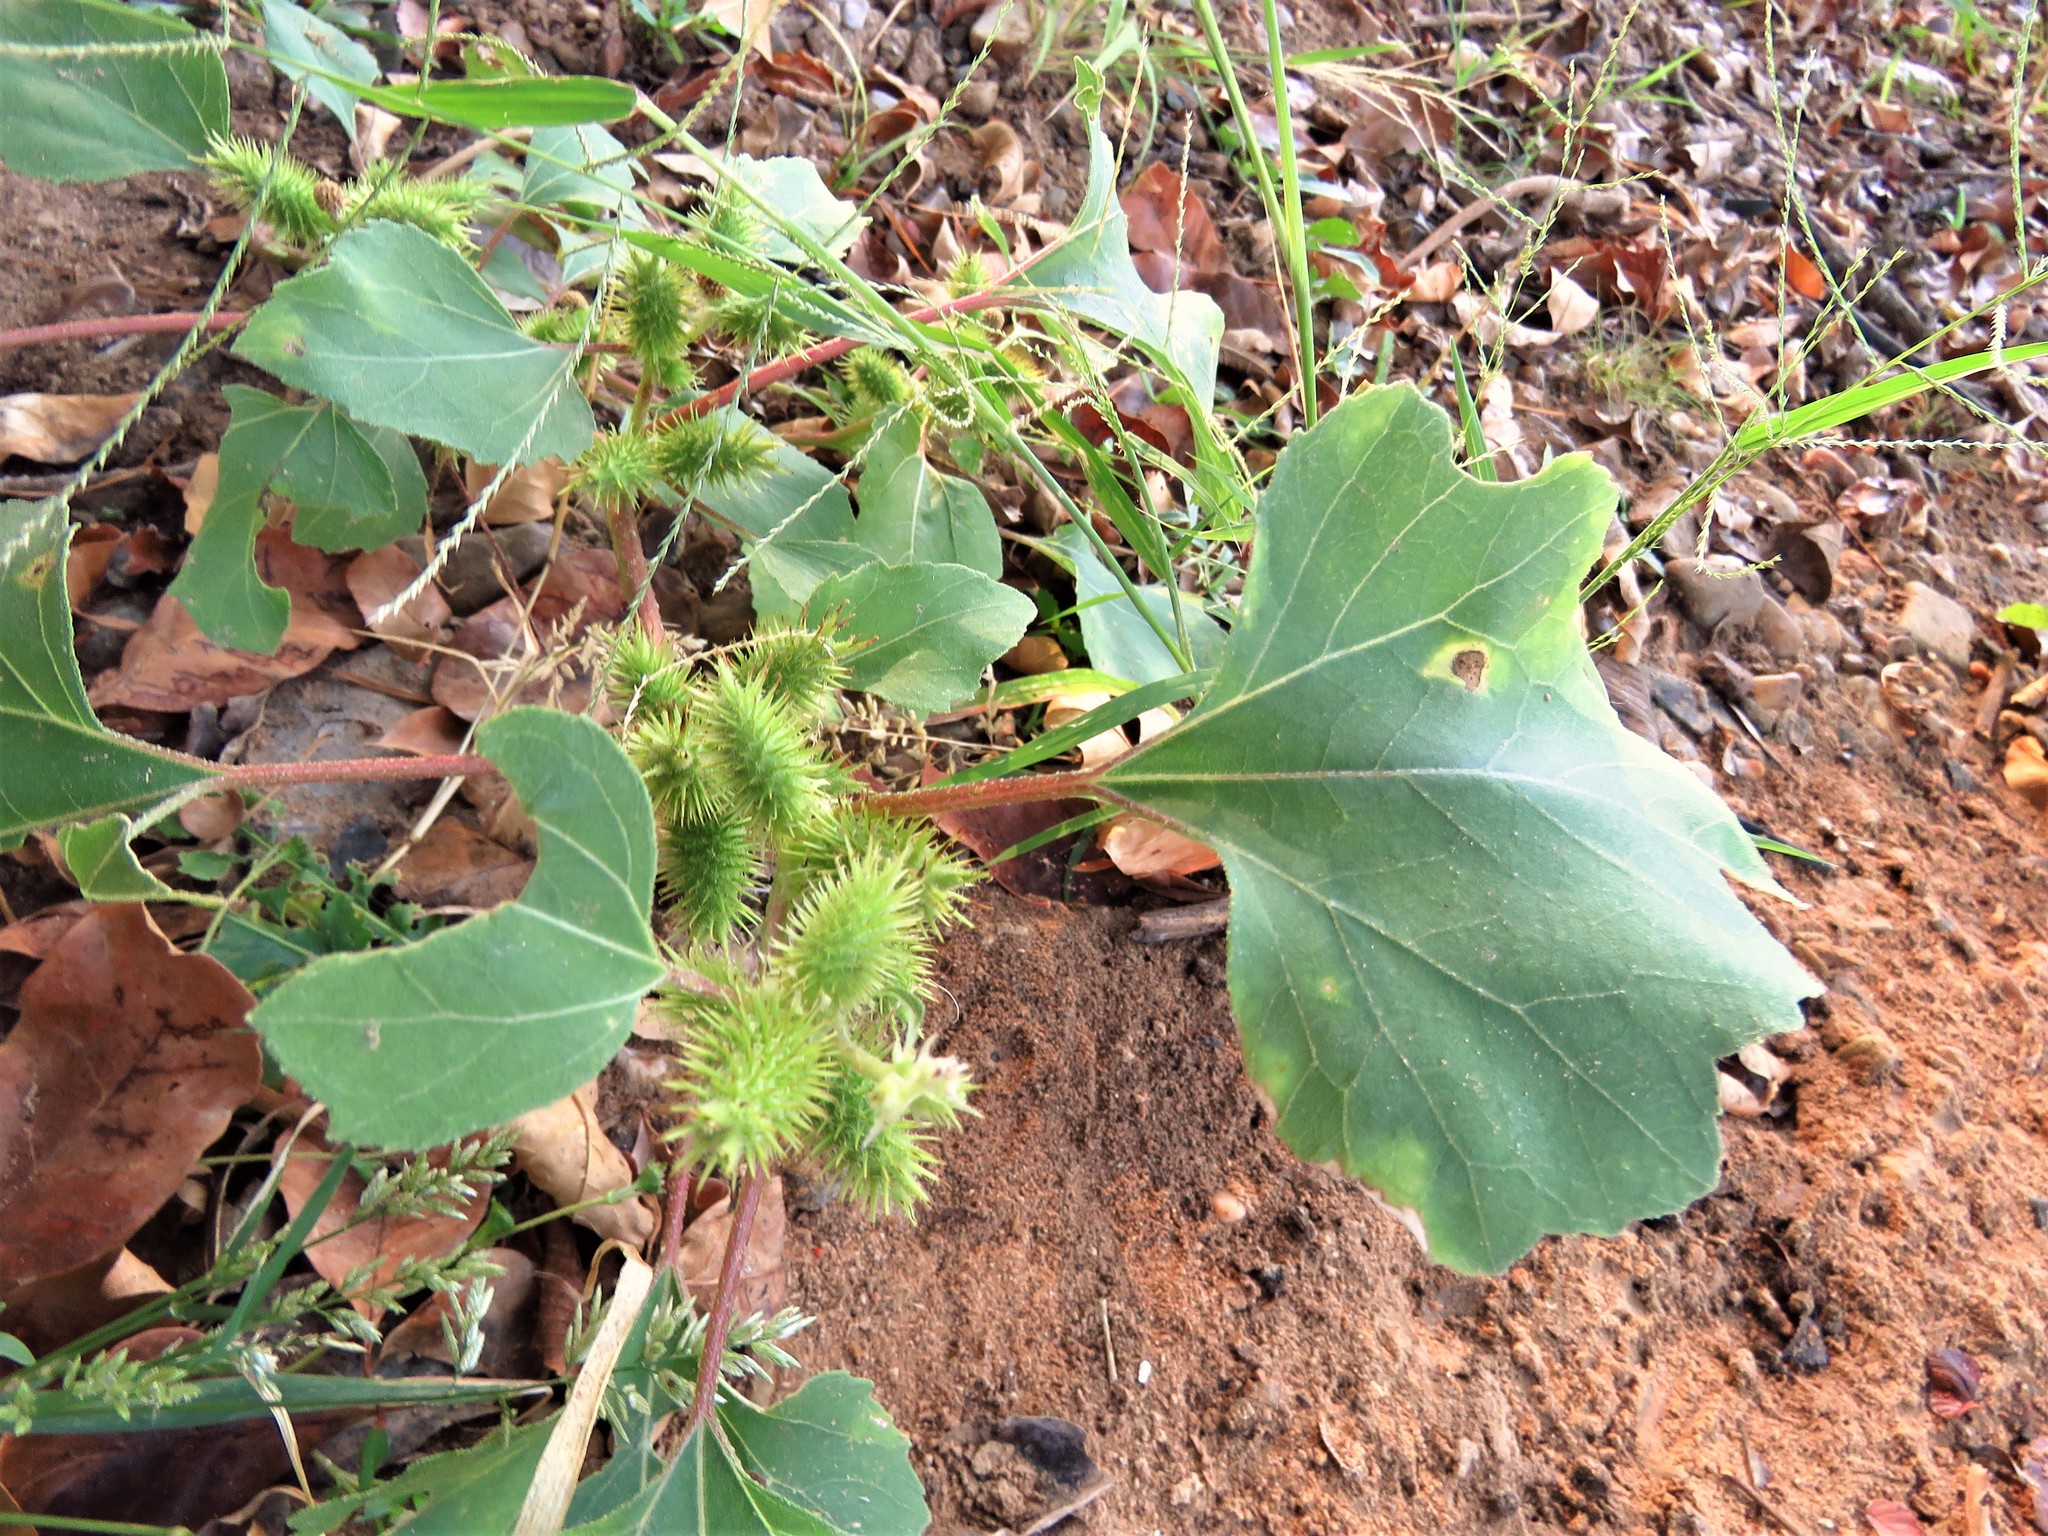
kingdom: Plantae
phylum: Tracheophyta
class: Magnoliopsida
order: Asterales
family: Asteraceae
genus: Xanthium
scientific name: Xanthium strumarium
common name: Rough cocklebur
